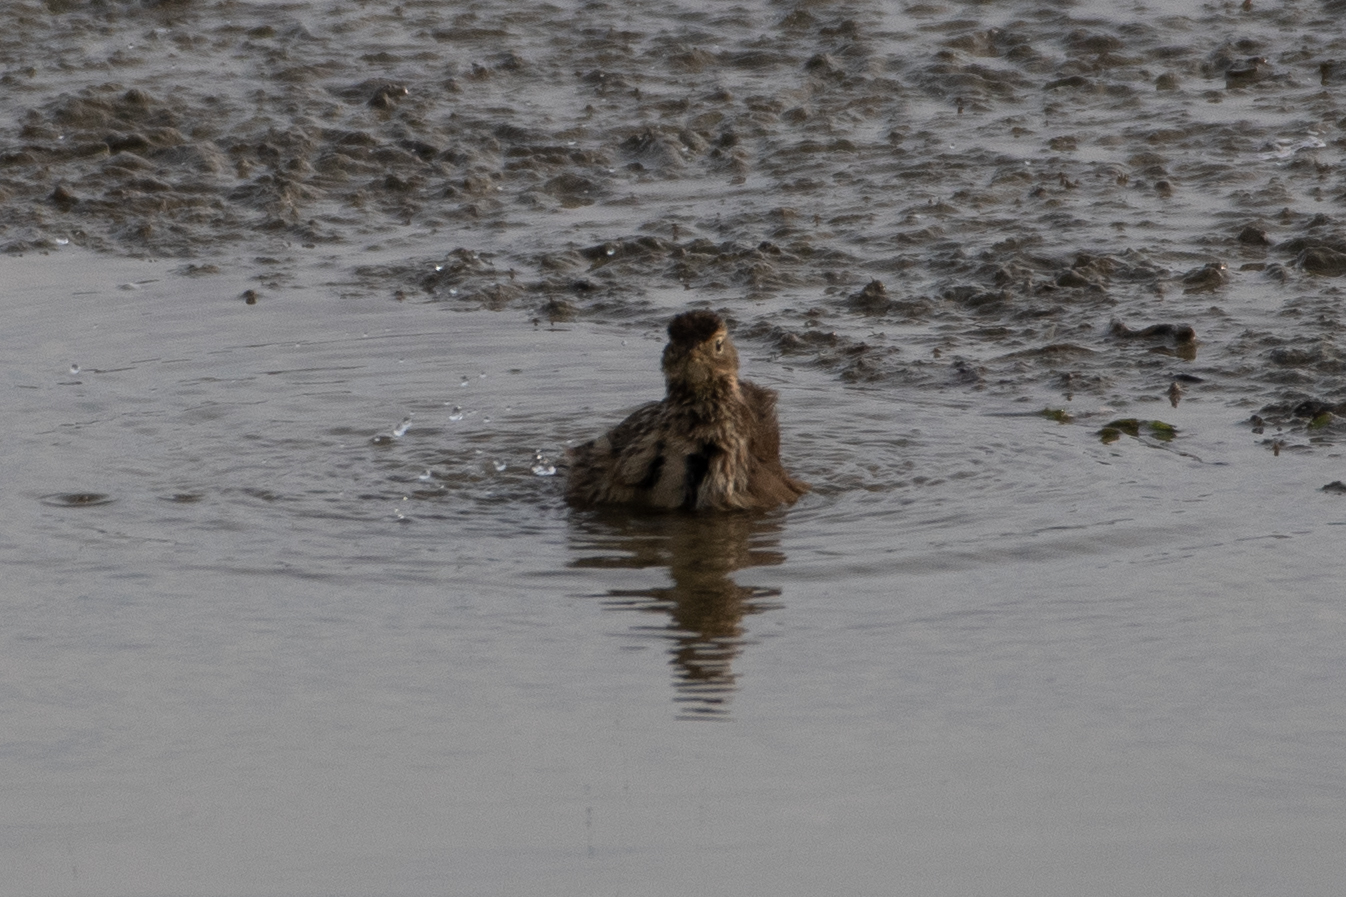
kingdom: Animalia
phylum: Chordata
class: Aves
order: Passeriformes
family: Motacillidae
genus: Anthus
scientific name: Anthus rubescens
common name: Buff-bellied pipit
